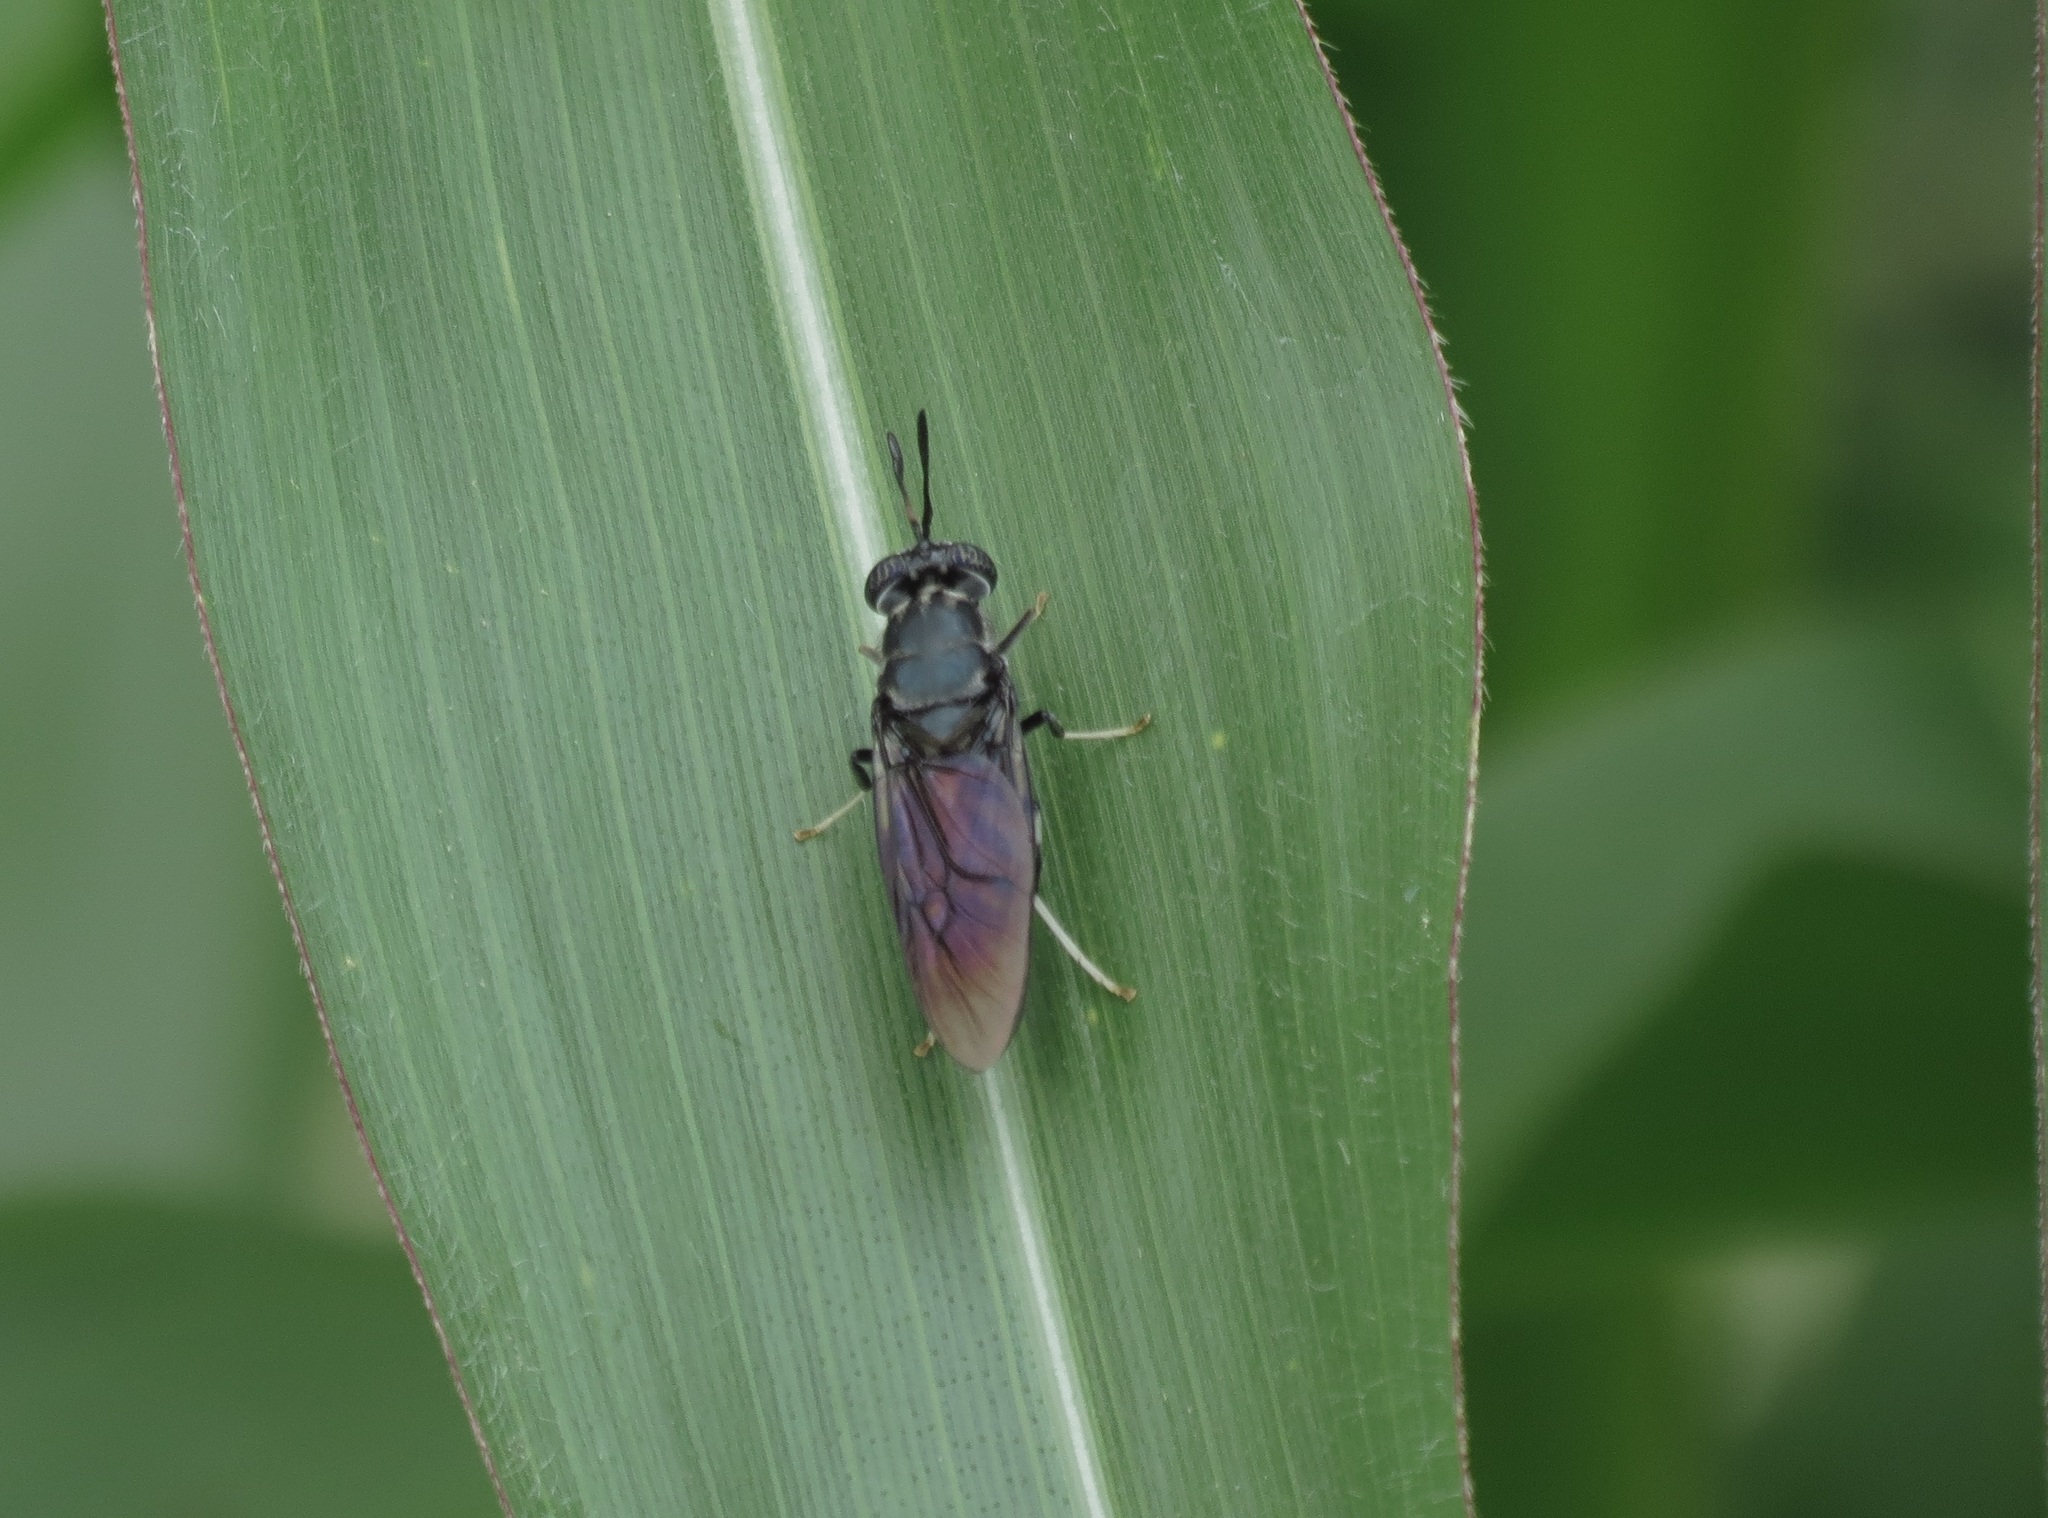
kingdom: Animalia
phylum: Arthropoda
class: Insecta
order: Diptera
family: Stratiomyidae
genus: Hermetia
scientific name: Hermetia illucens
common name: Black soldier fly
